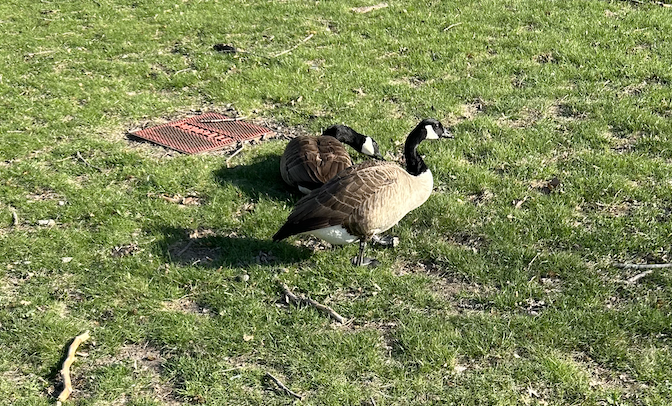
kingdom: Animalia
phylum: Chordata
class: Aves
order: Anseriformes
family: Anatidae
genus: Branta
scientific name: Branta canadensis
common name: Canada goose
